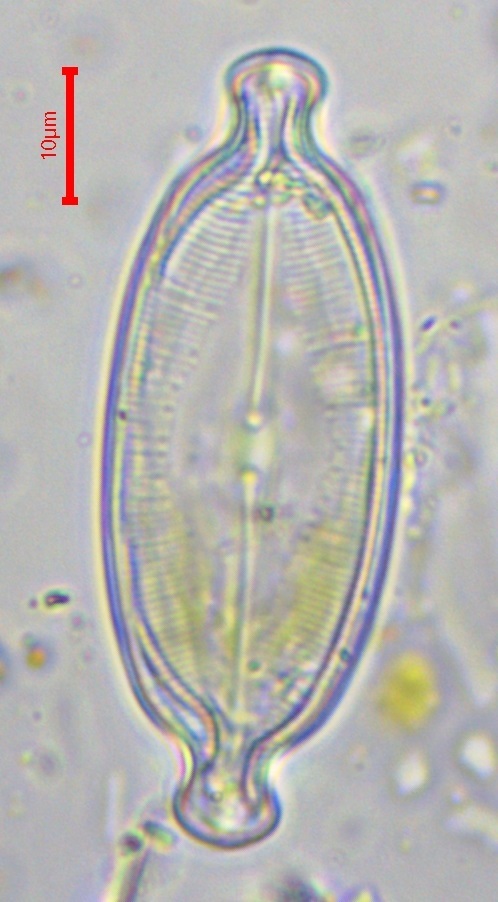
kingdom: Chromista
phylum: Ochrophyta
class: Bacillariophyceae
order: Naviculales
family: Naviculaceae
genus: Caloneis
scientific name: Caloneis amphisbaena
